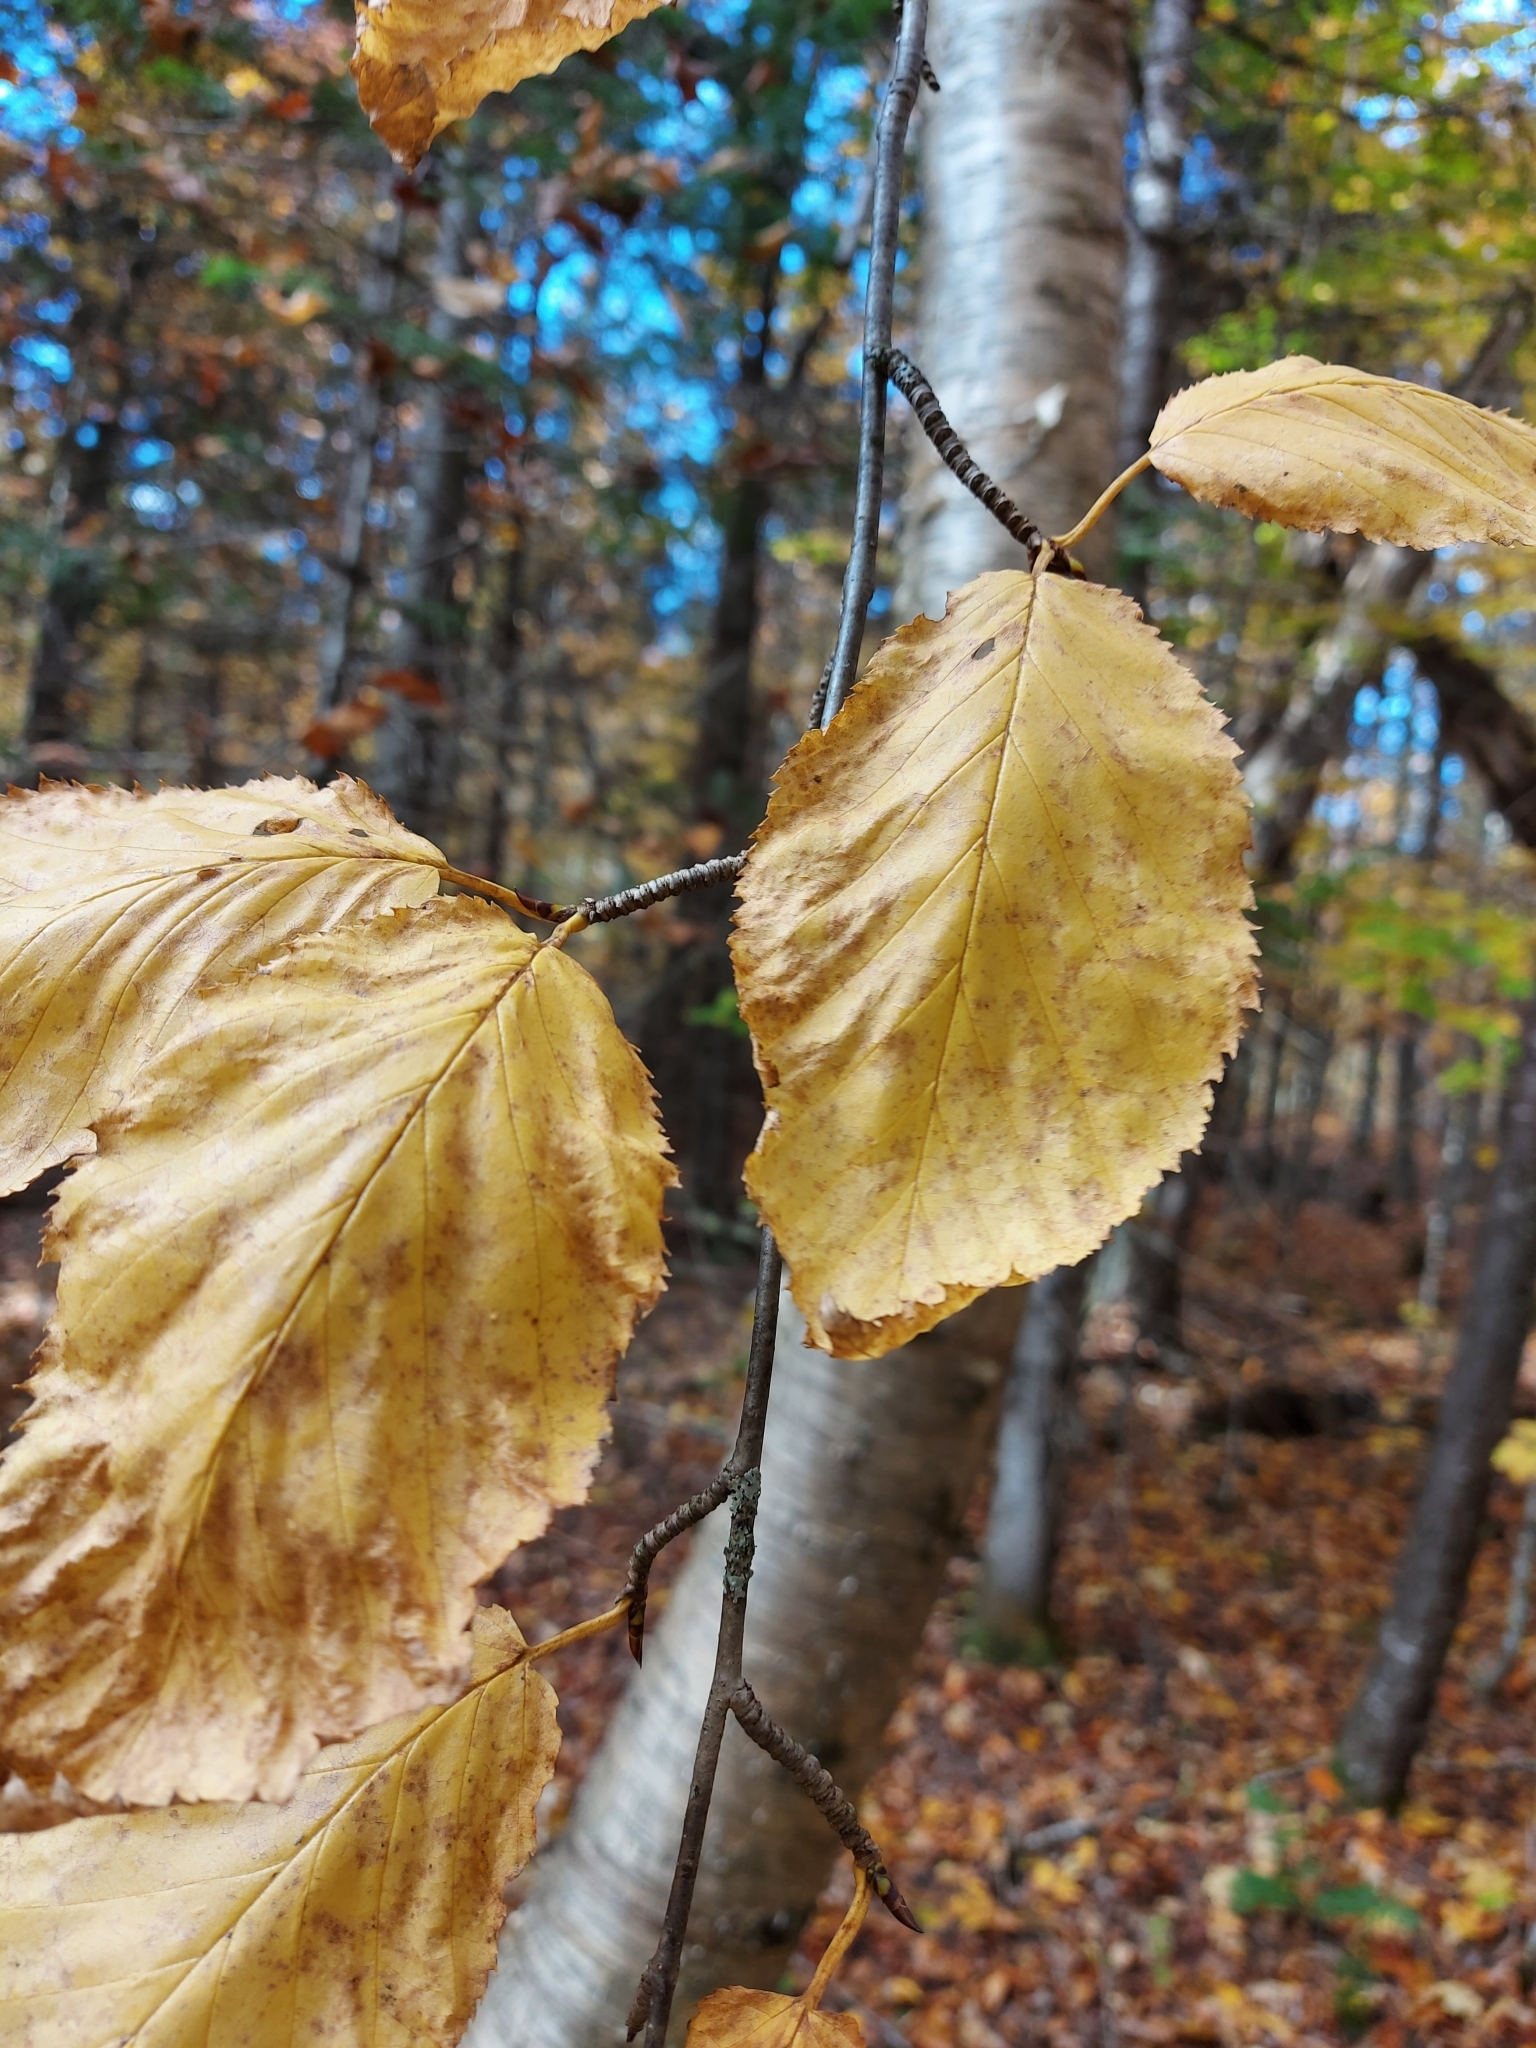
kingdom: Plantae
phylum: Tracheophyta
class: Magnoliopsida
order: Fagales
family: Betulaceae
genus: Betula
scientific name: Betula alleghaniensis
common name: Yellow birch
